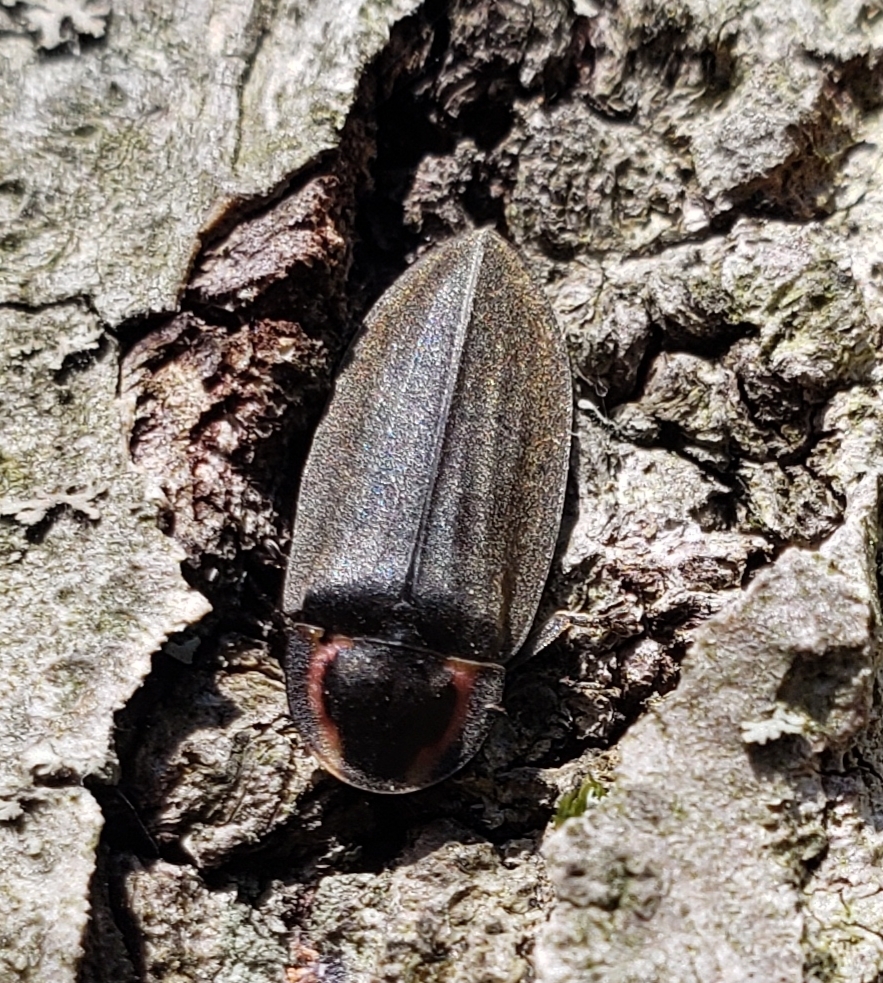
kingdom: Animalia
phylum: Arthropoda
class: Insecta
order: Coleoptera
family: Lampyridae
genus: Photinus
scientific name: Photinus corrusca
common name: Winter firefly
